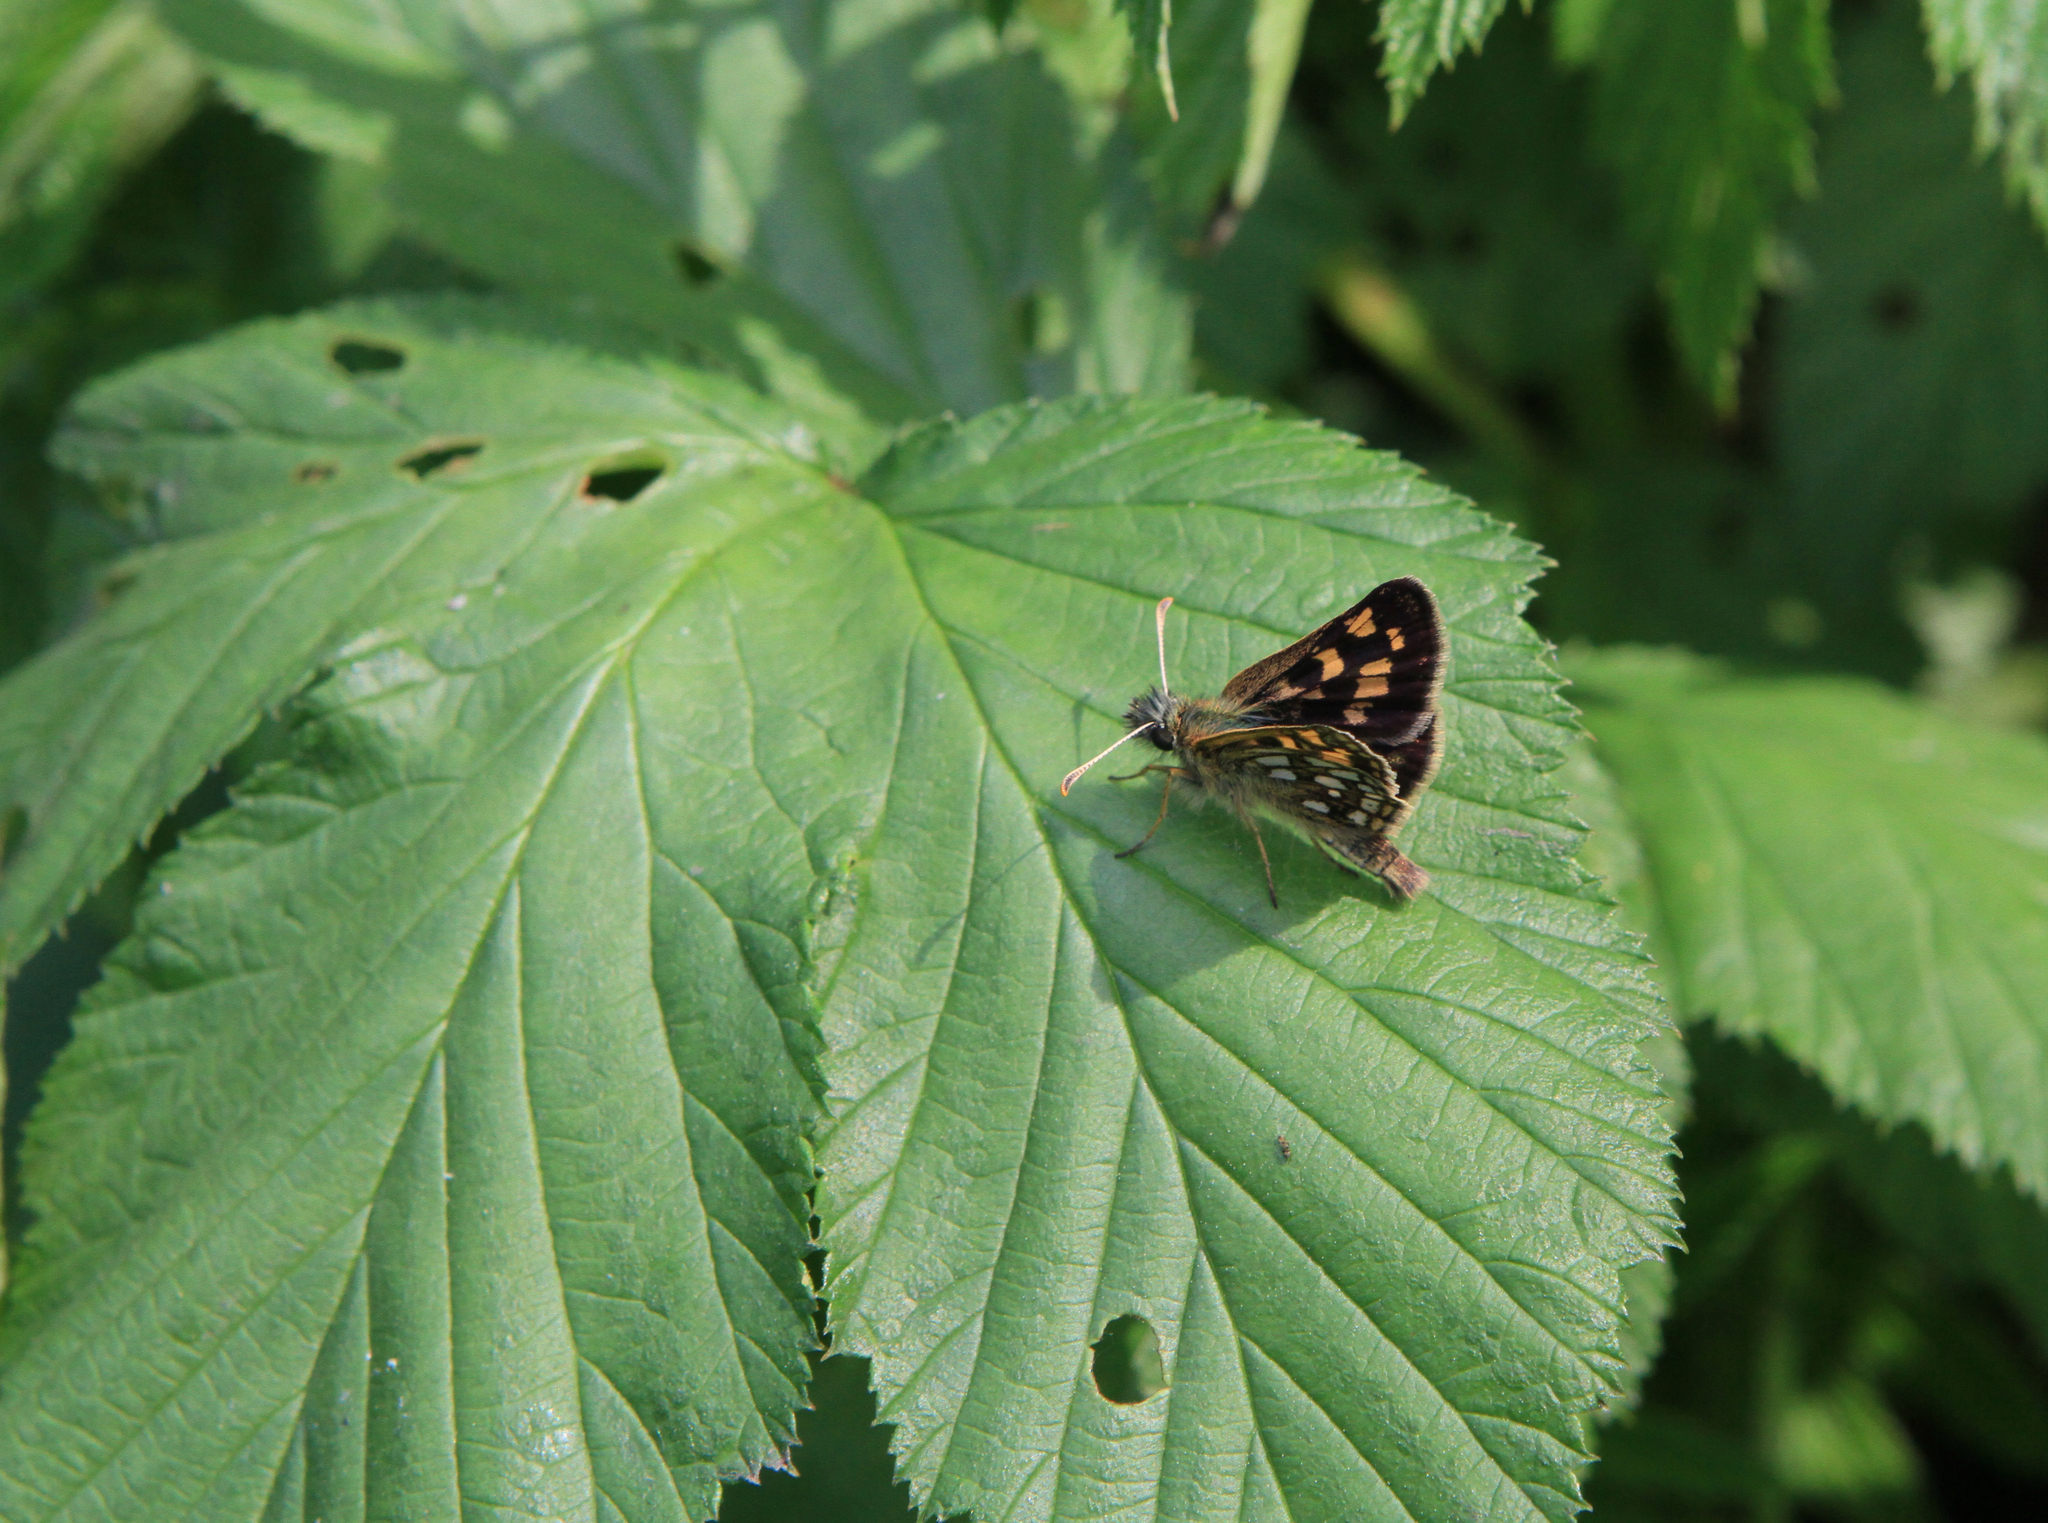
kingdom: Plantae
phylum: Tracheophyta
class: Magnoliopsida
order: Rosales
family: Rosaceae
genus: Filipendula
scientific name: Filipendula ulmaria
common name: Meadowsweet
